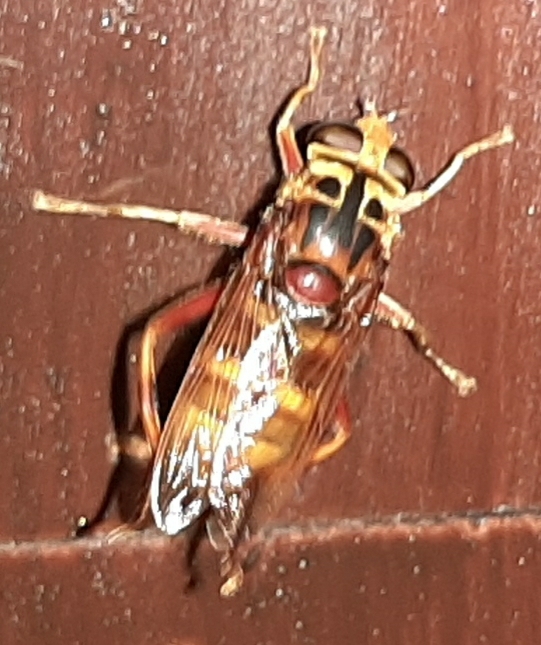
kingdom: Animalia
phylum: Arthropoda
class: Insecta
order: Diptera
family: Syrphidae
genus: Milesia
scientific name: Milesia crabroniformis
